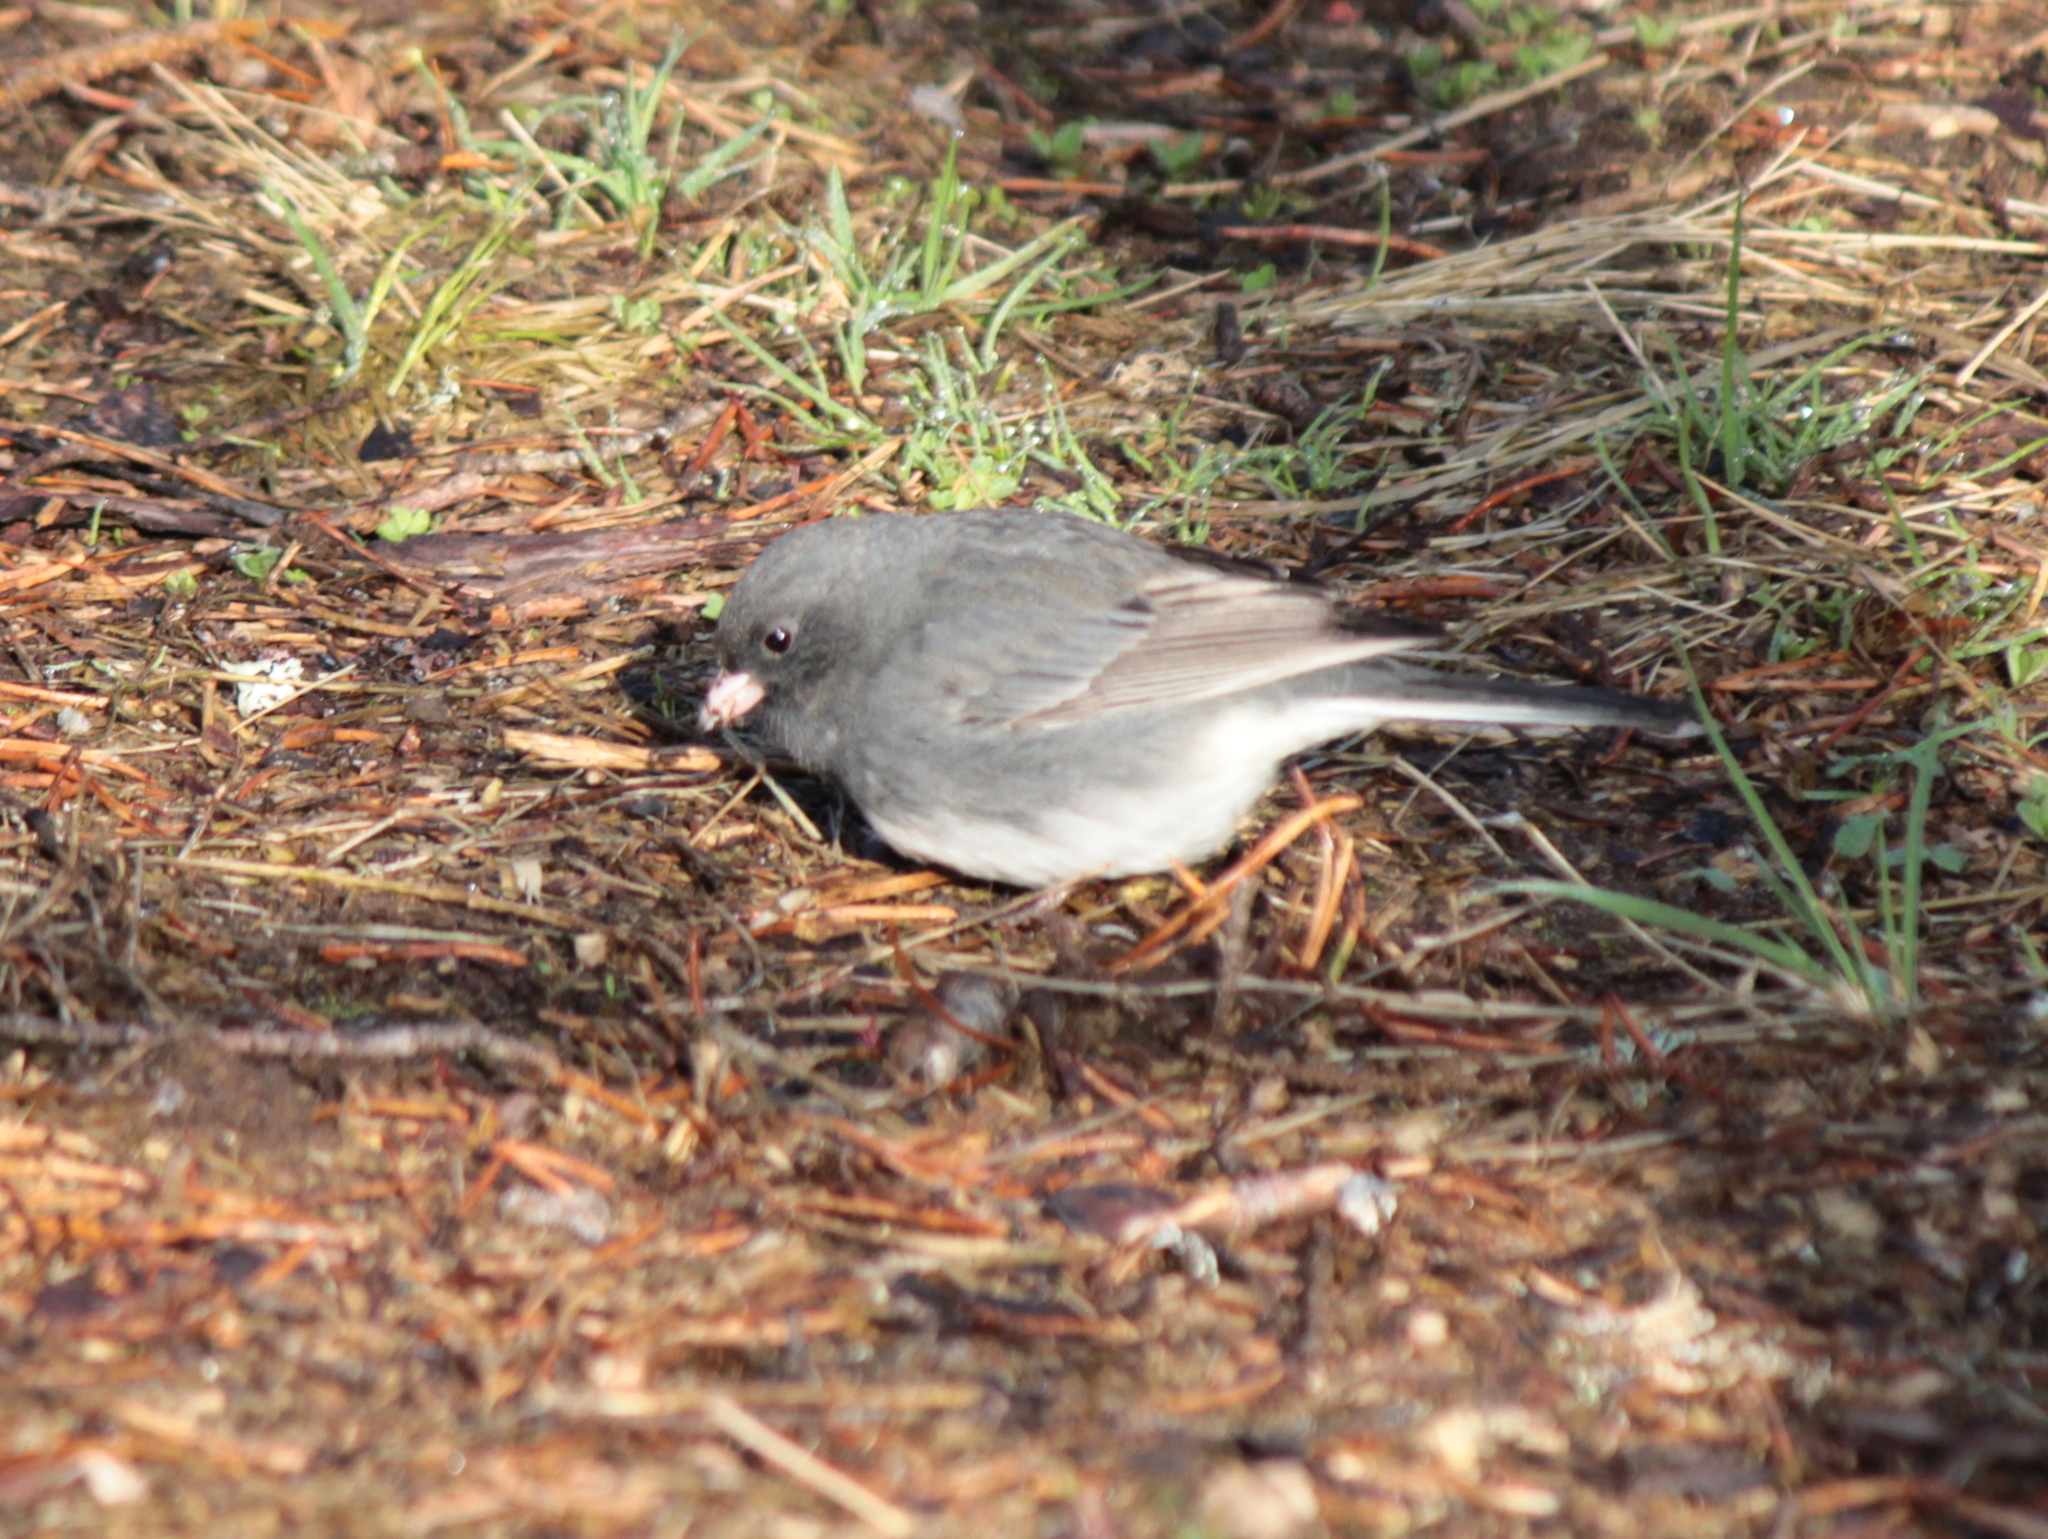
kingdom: Animalia
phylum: Chordata
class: Aves
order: Passeriformes
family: Passerellidae
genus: Junco
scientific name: Junco hyemalis
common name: Dark-eyed junco
